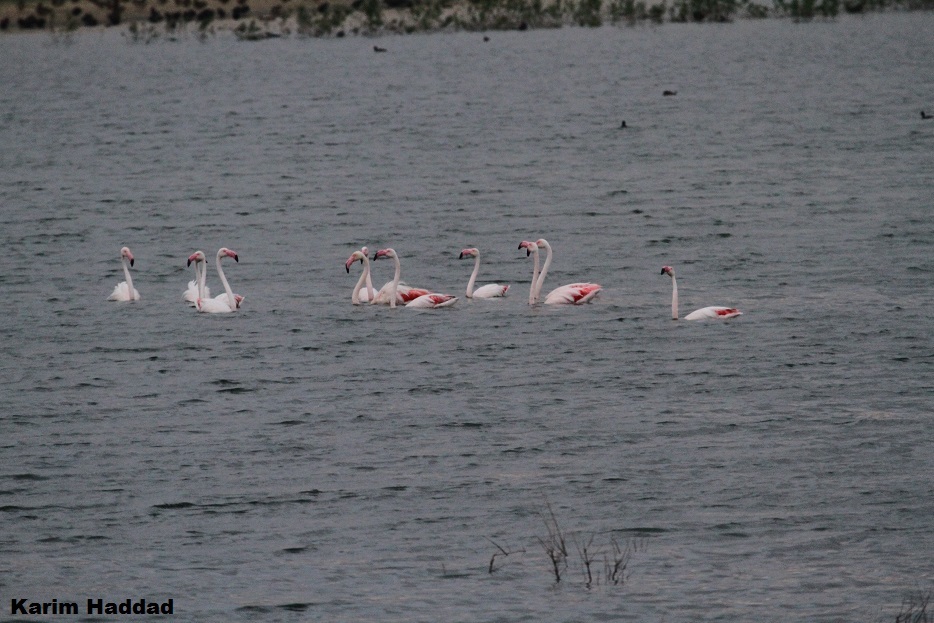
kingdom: Animalia
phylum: Chordata
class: Aves
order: Phoenicopteriformes
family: Phoenicopteridae
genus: Phoenicopterus
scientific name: Phoenicopterus roseus
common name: Greater flamingo
